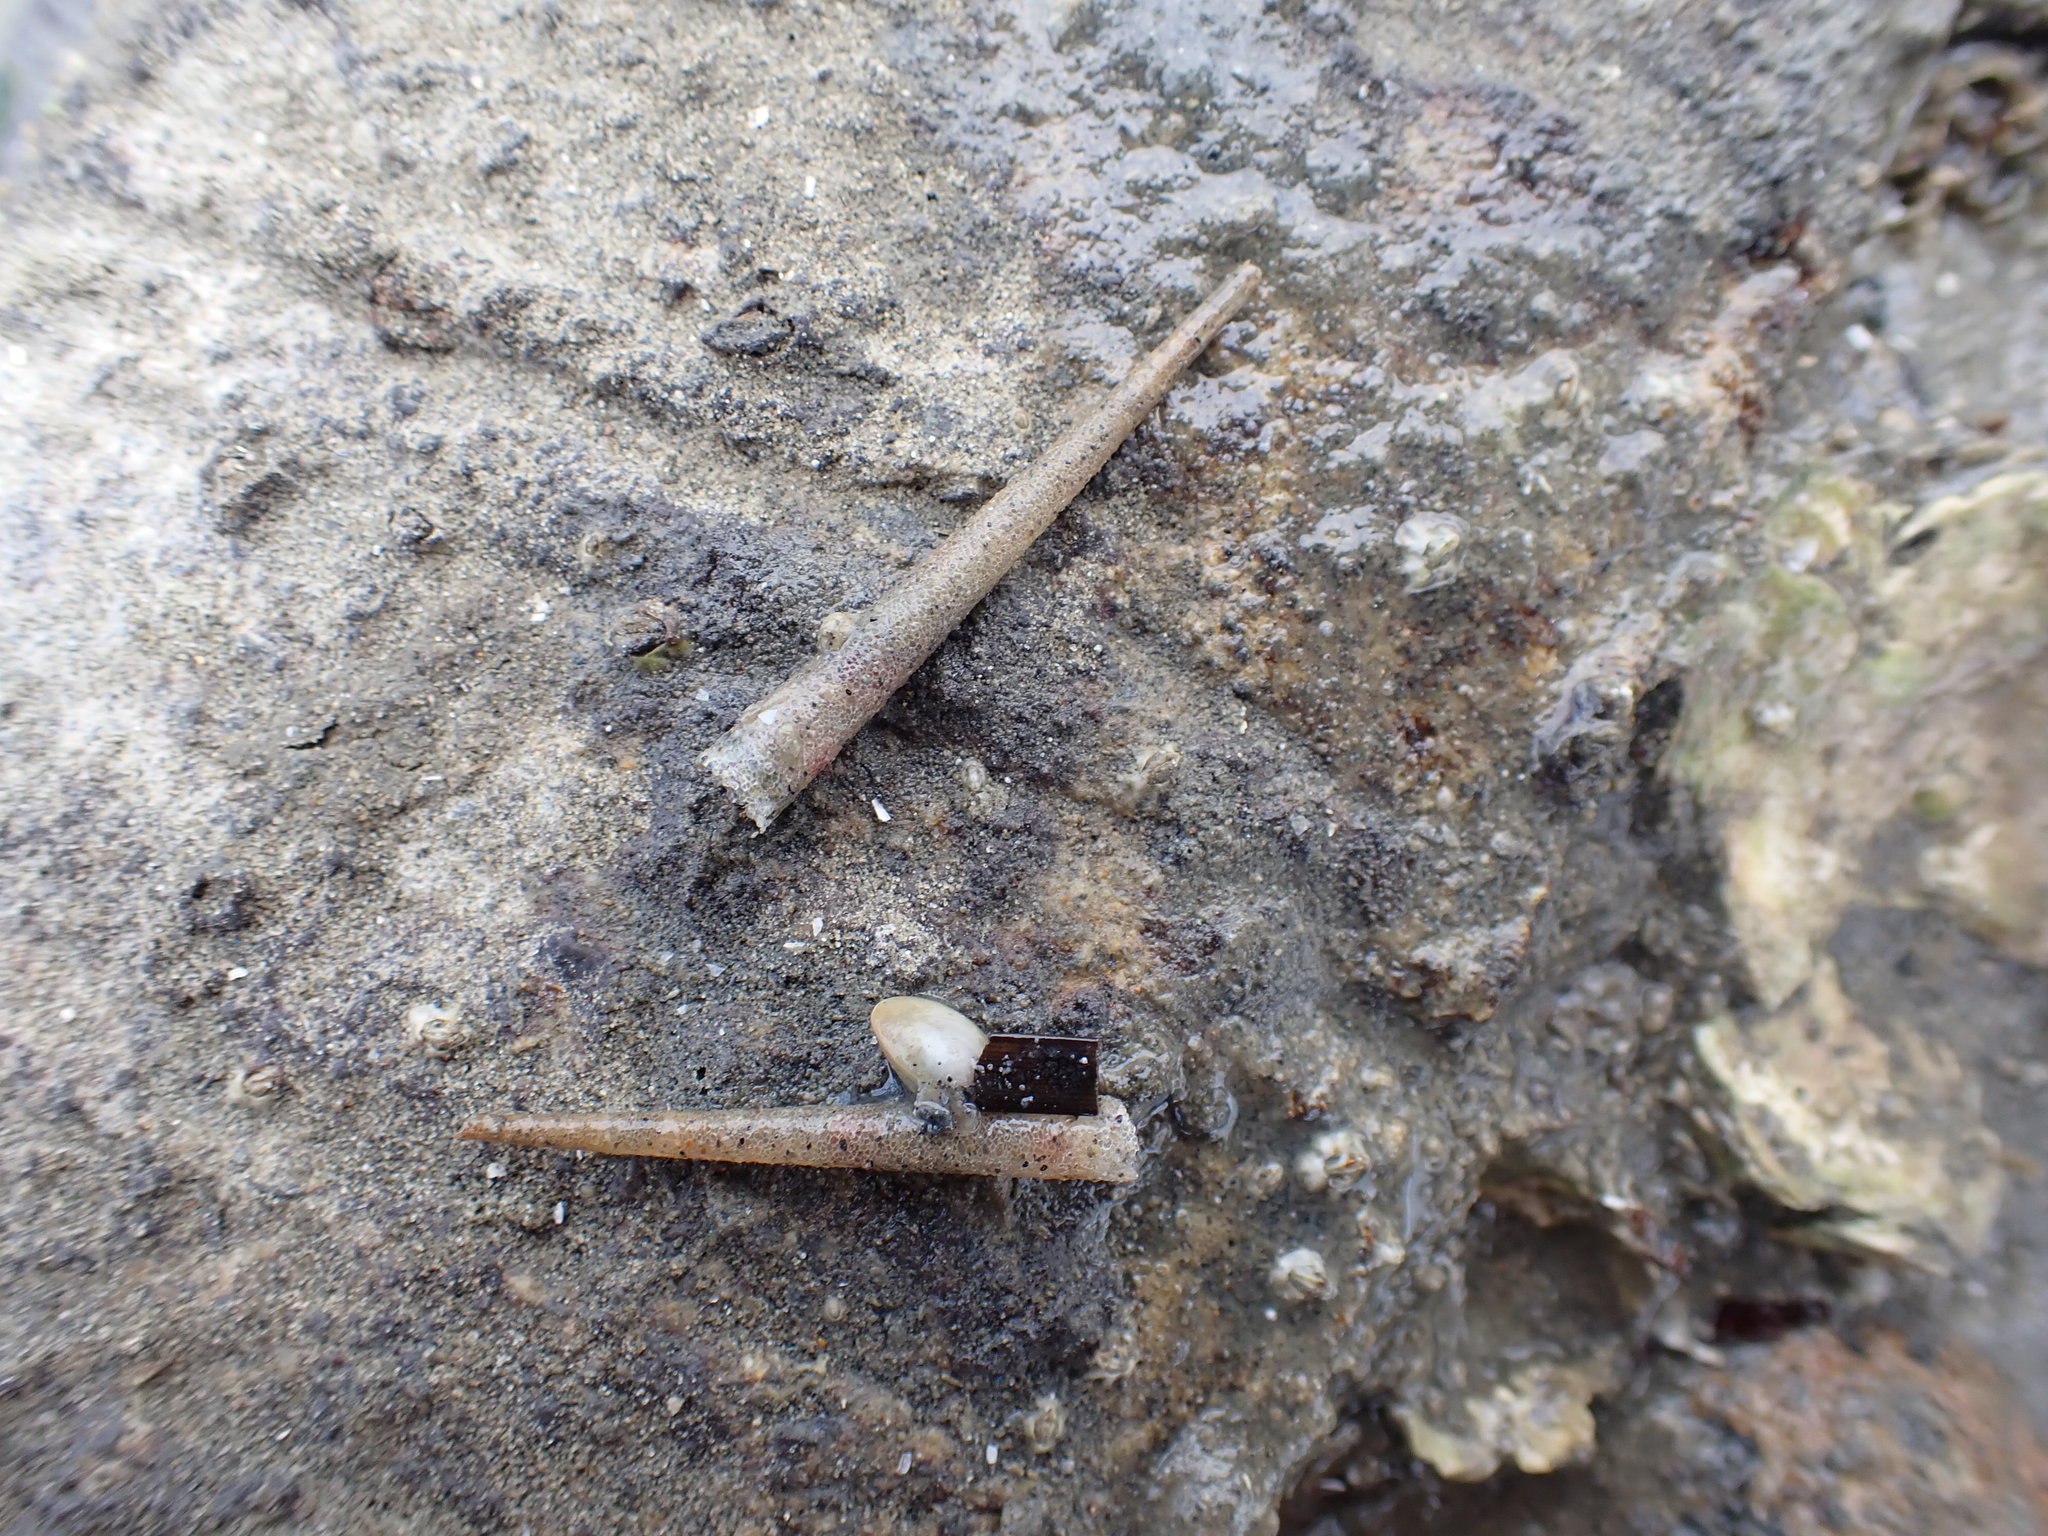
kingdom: Animalia
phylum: Annelida
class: Polychaeta
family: Pectinariidae
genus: Lagis
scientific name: Lagis australis
